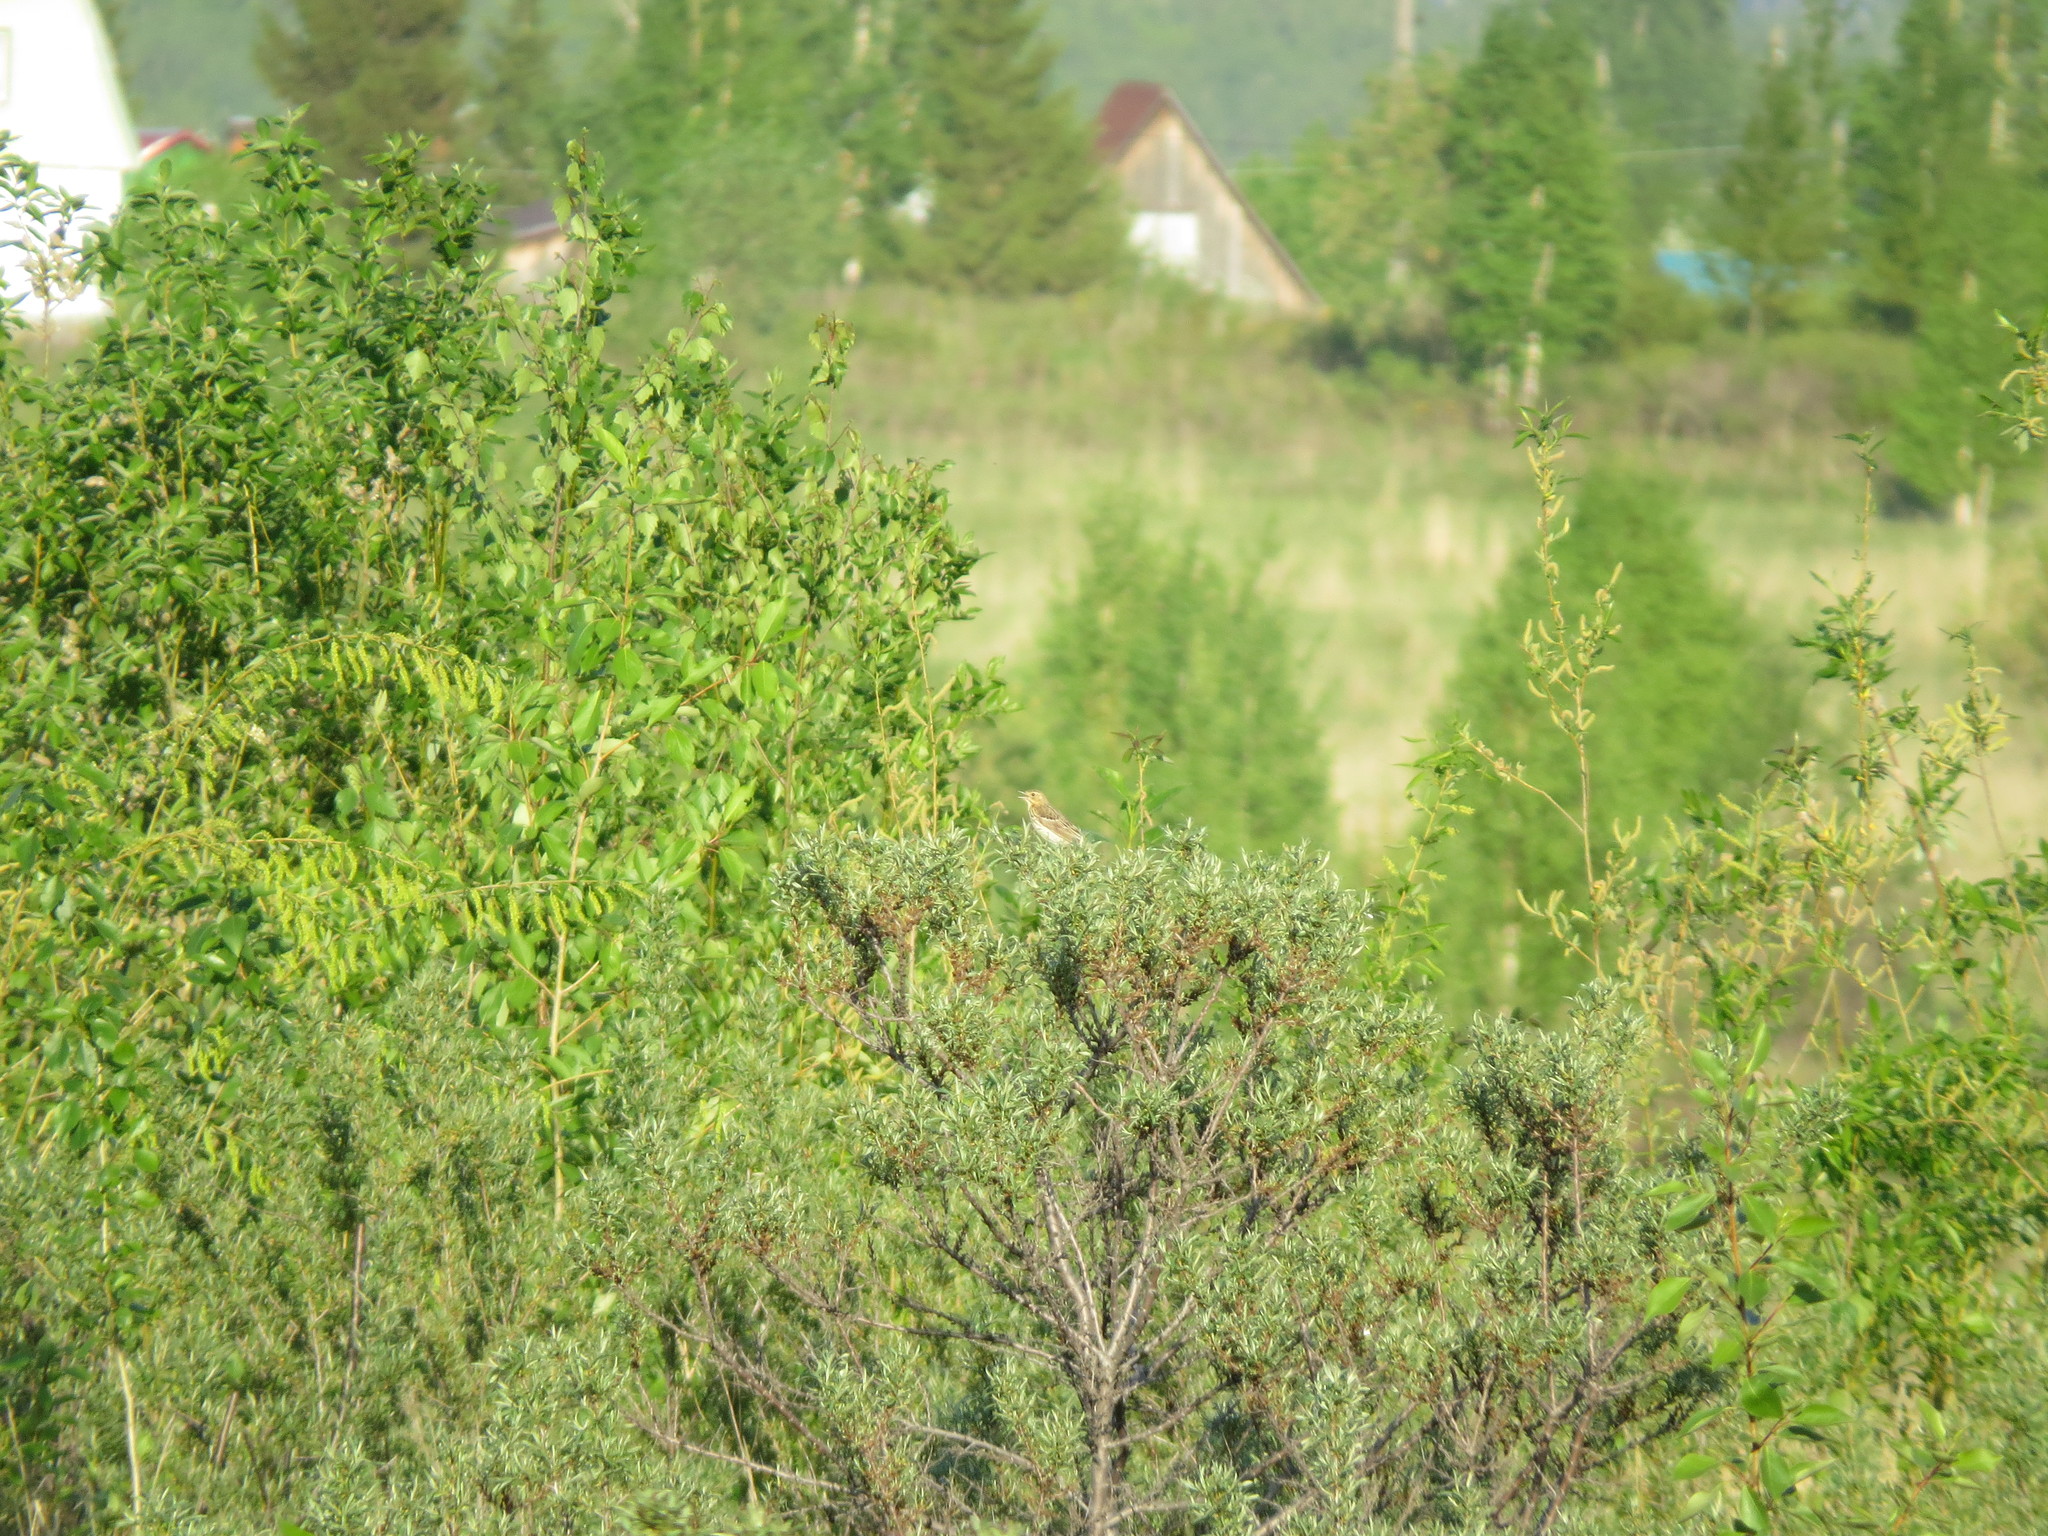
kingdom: Animalia
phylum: Chordata
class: Aves
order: Passeriformes
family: Motacillidae
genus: Anthus
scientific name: Anthus trivialis
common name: Tree pipit
